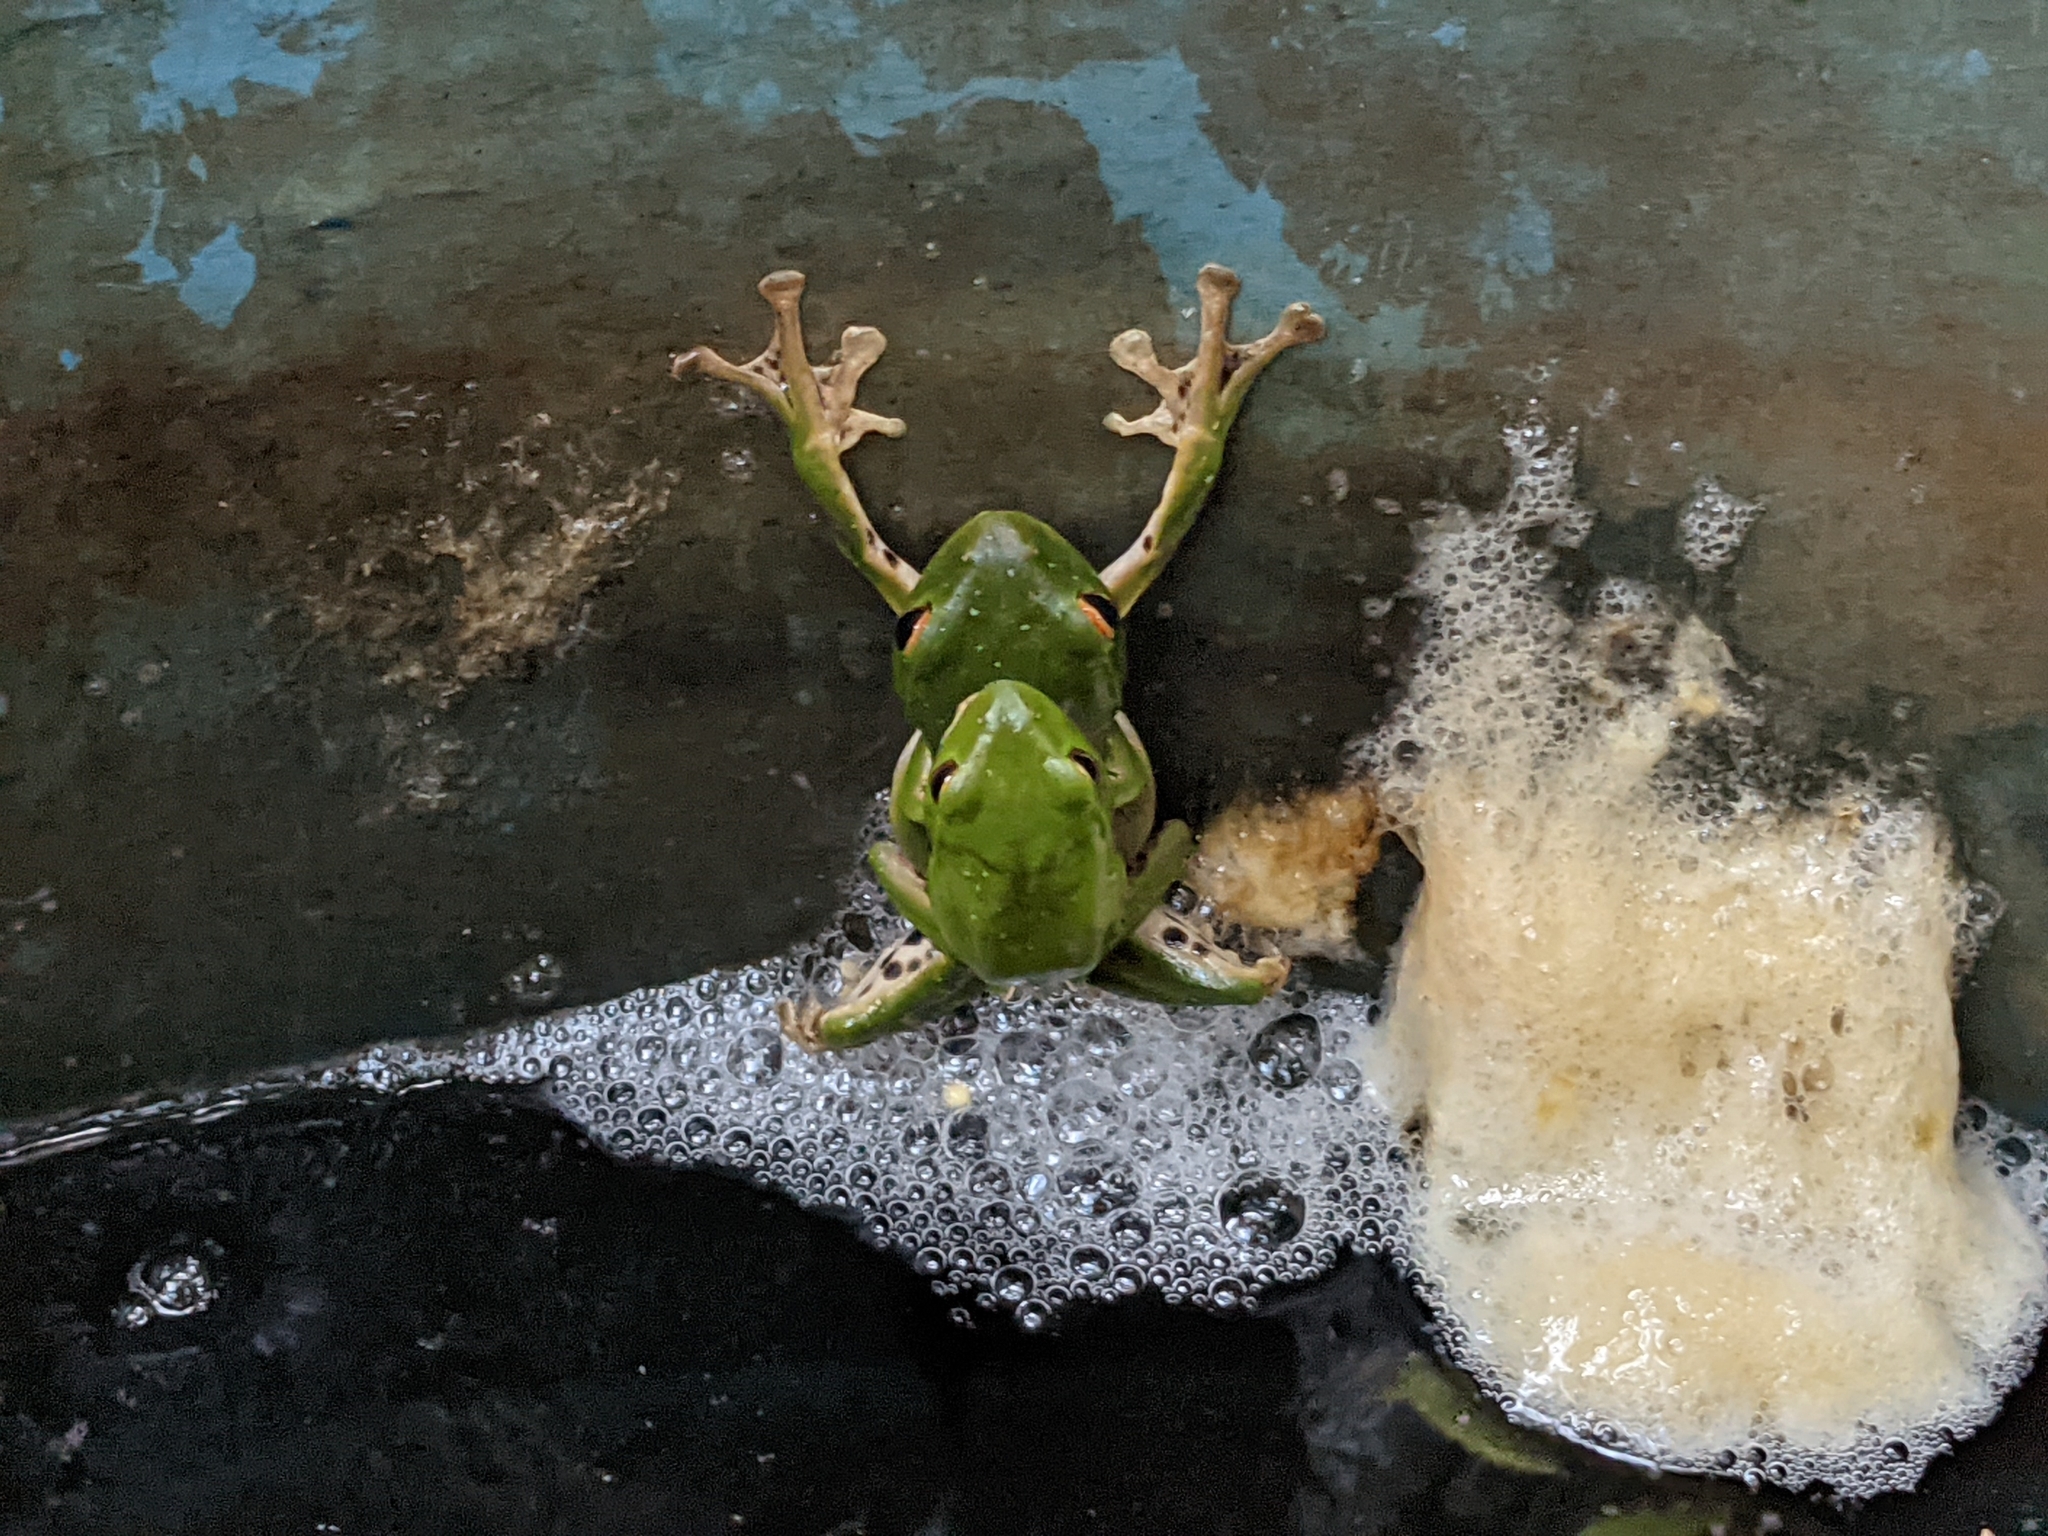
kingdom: Animalia
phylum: Chordata
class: Amphibia
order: Anura
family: Rhacophoridae
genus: Zhangixalus
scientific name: Zhangixalus moltrechti
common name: Moltrecht's treefrog
